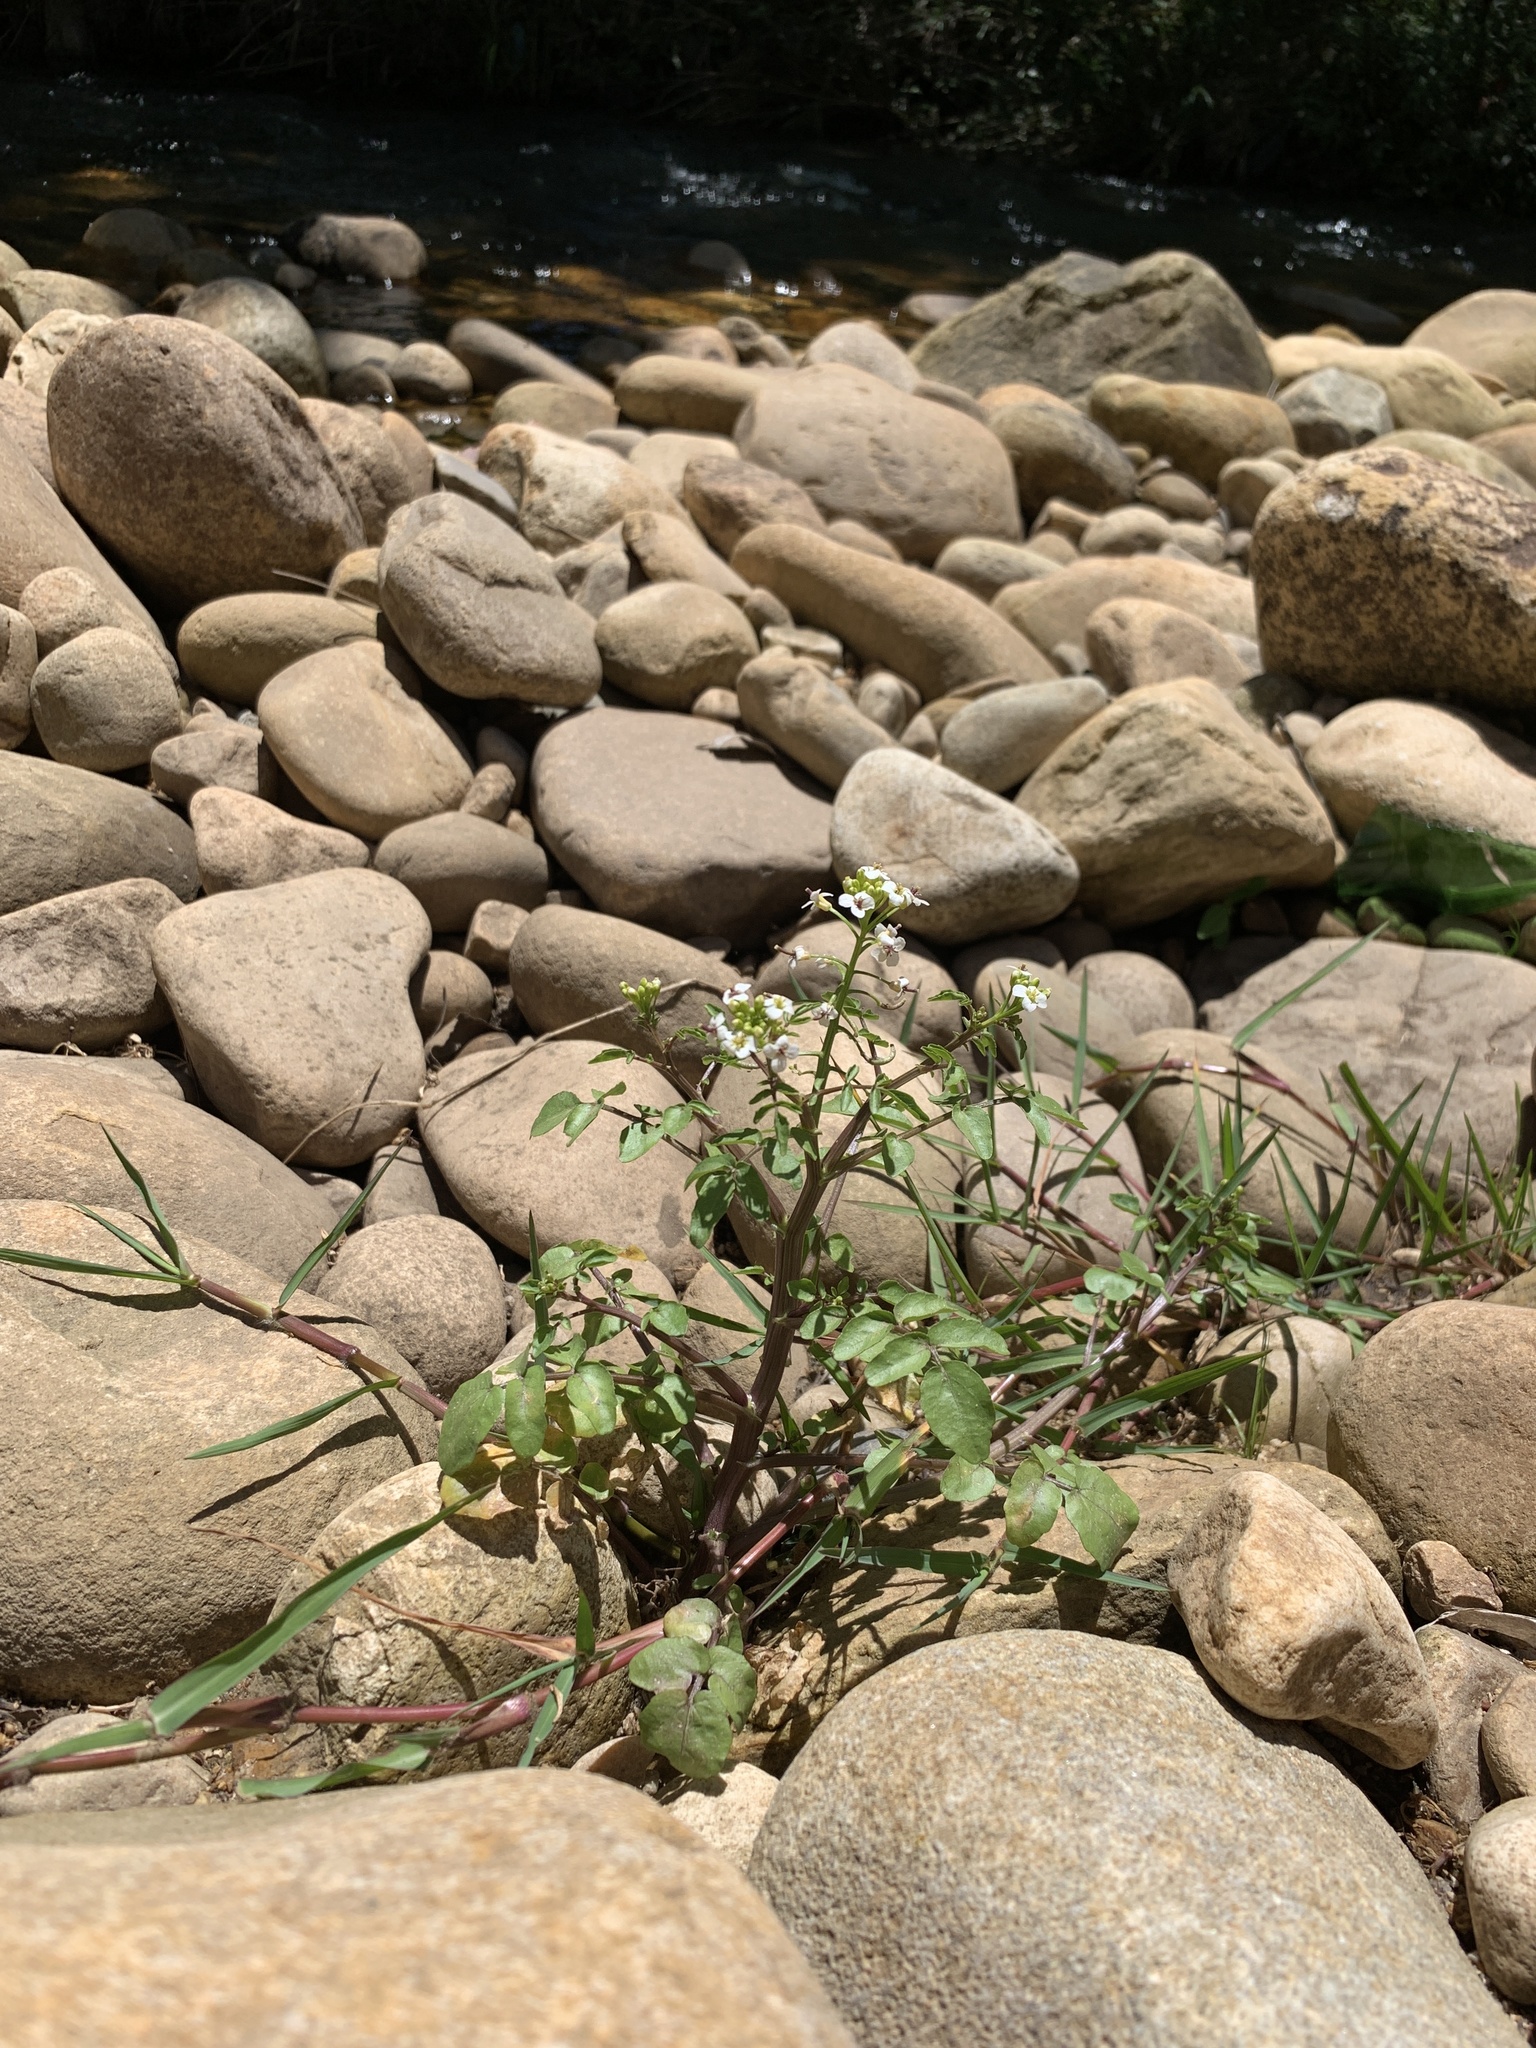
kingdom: Plantae
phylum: Tracheophyta
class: Magnoliopsida
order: Brassicales
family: Brassicaceae
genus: Nasturtium
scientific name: Nasturtium officinale
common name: Watercress
